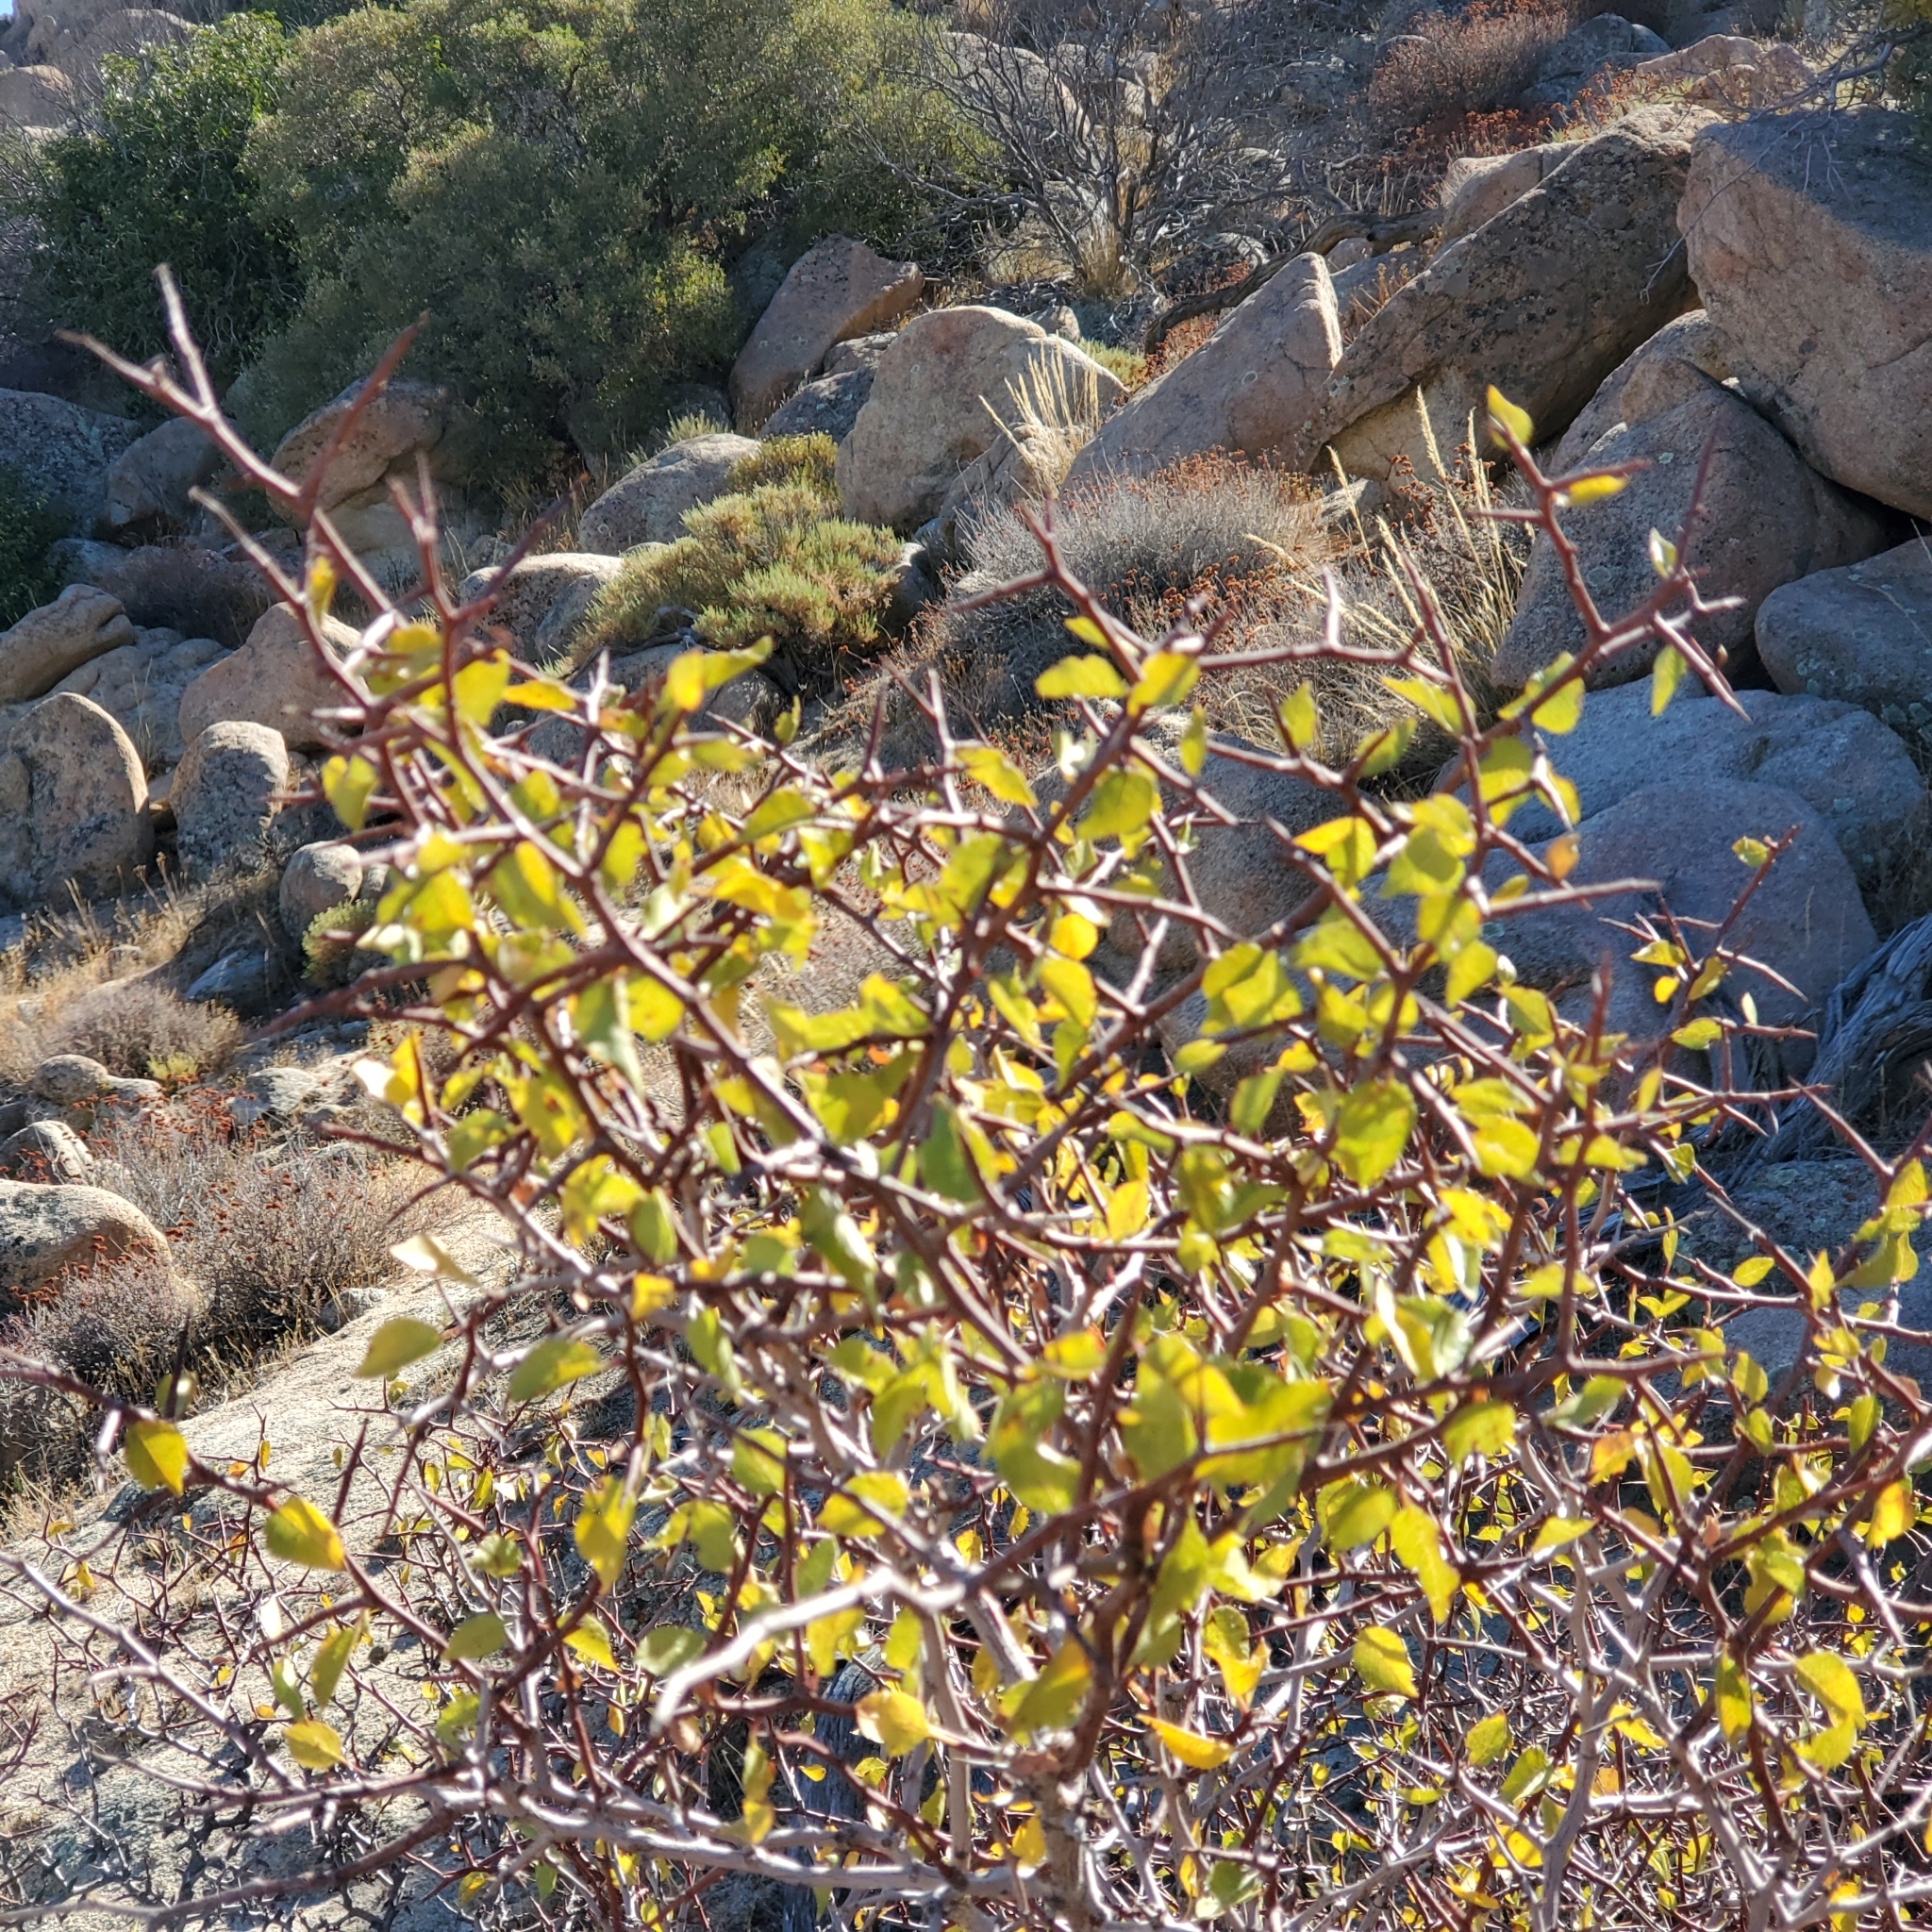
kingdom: Plantae
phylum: Tracheophyta
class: Magnoliopsida
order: Rosales
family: Rosaceae
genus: Prunus
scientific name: Prunus fremontii
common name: Desert apricot
